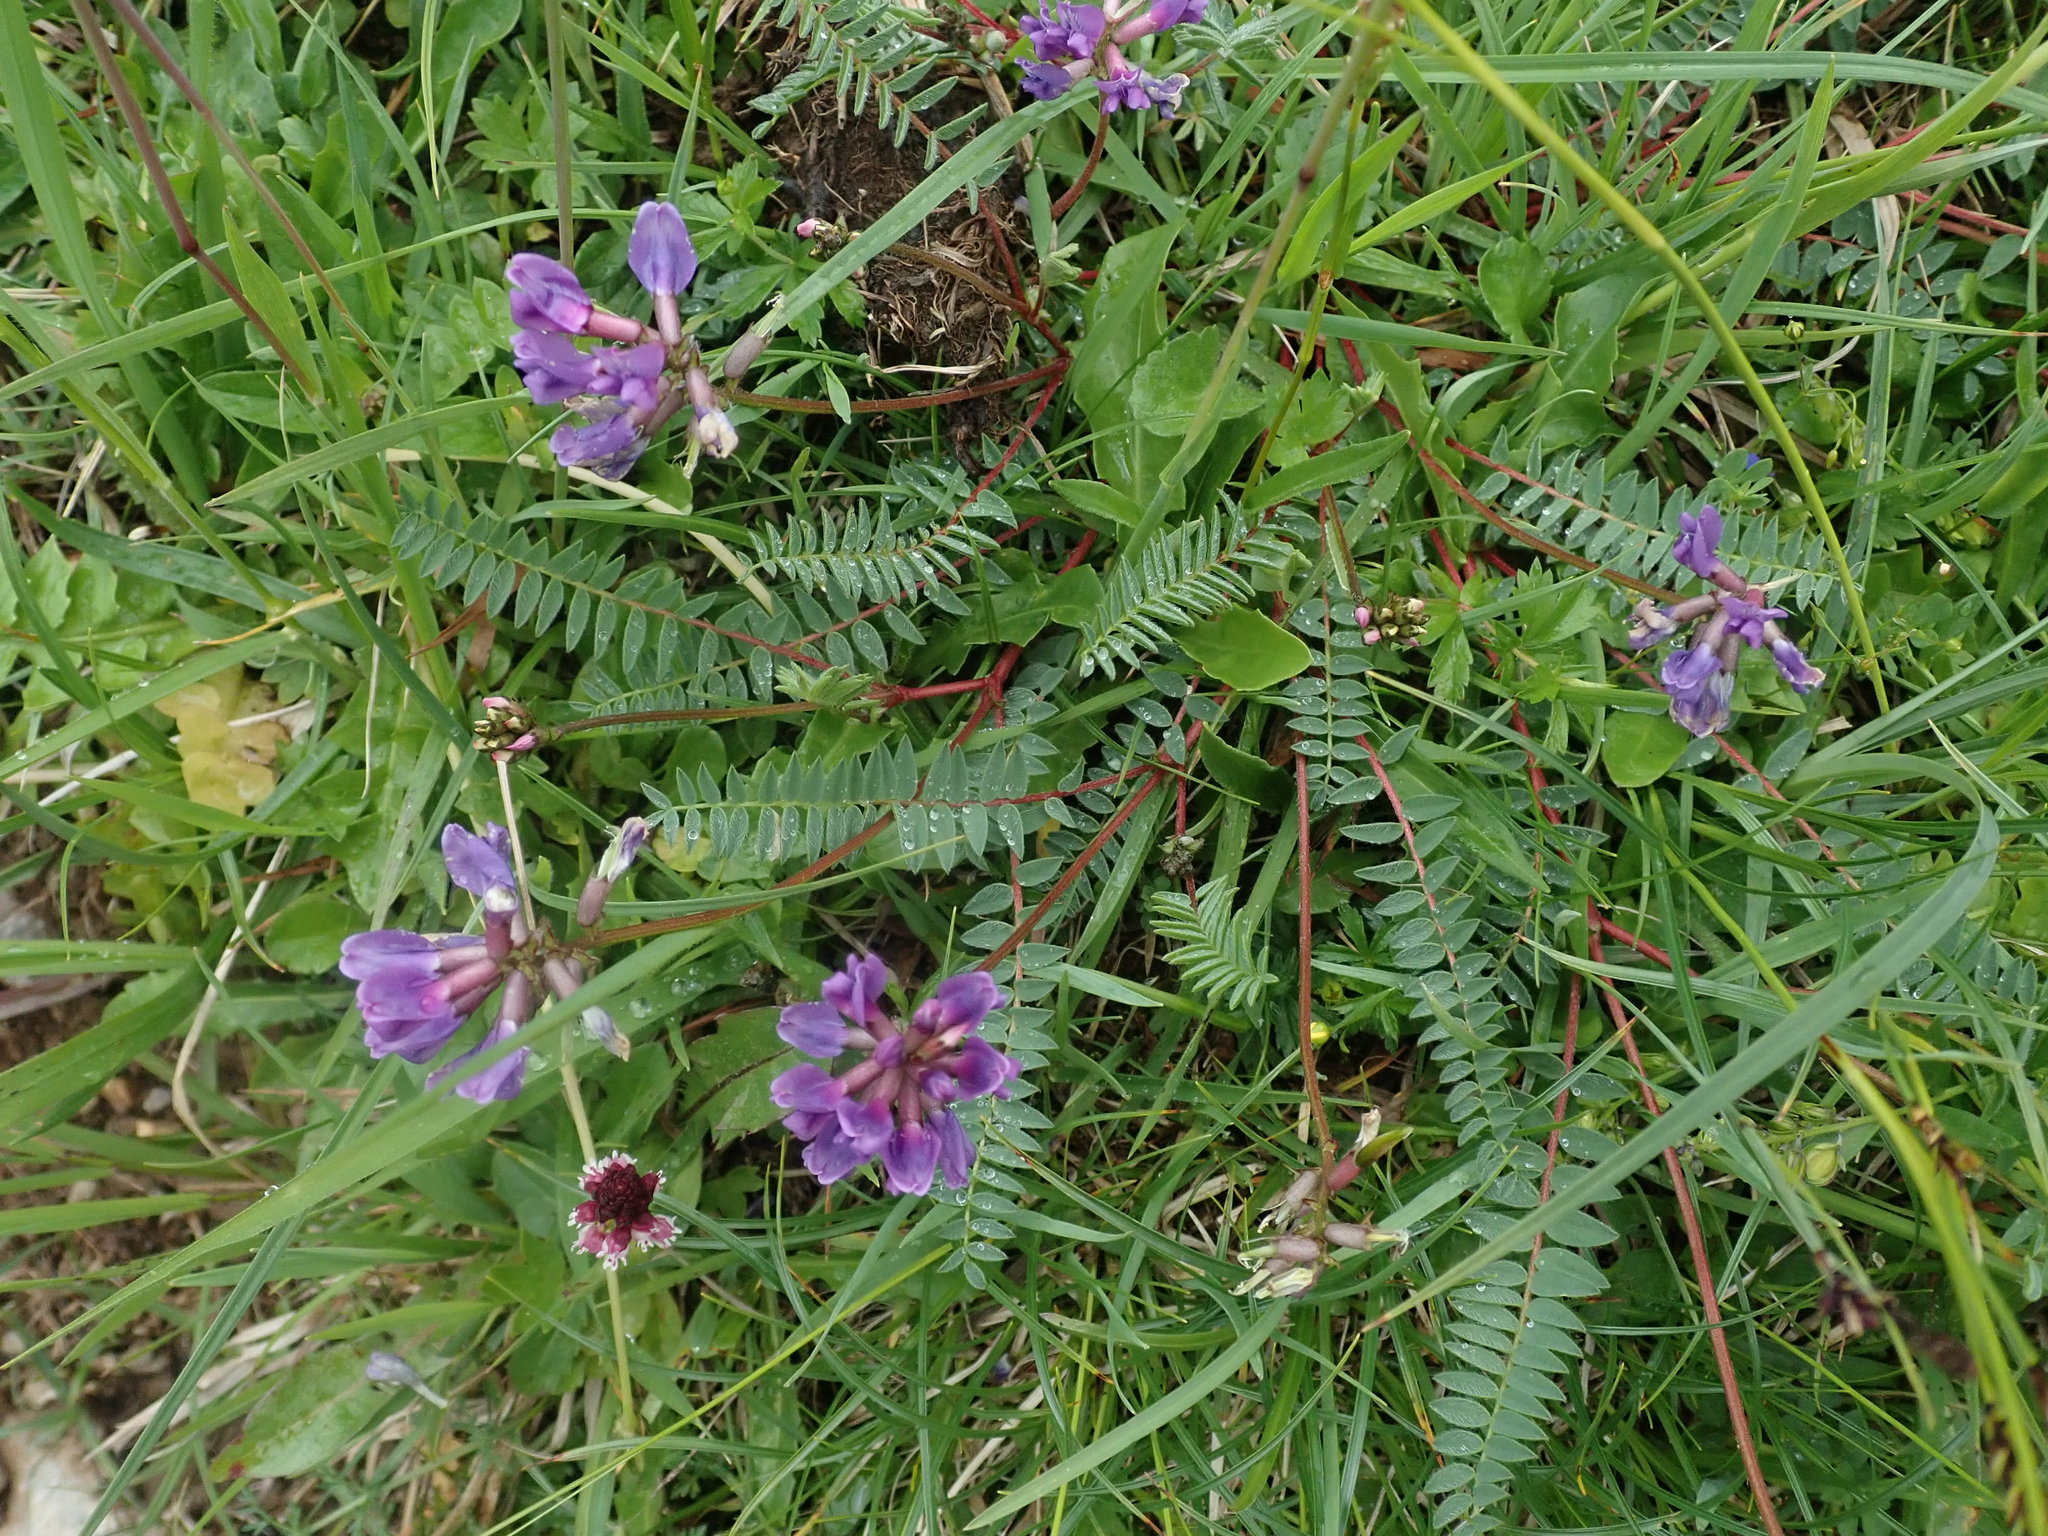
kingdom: Plantae
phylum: Tracheophyta
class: Magnoliopsida
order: Fabales
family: Fabaceae
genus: Oxytropis
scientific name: Oxytropis montana
